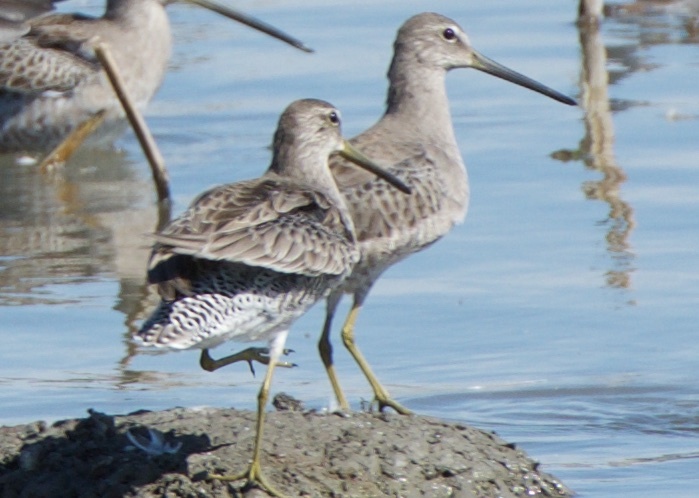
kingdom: Animalia
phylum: Chordata
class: Aves
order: Charadriiformes
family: Scolopacidae
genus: Limnodromus
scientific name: Limnodromus scolopaceus
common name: Long-billed dowitcher
